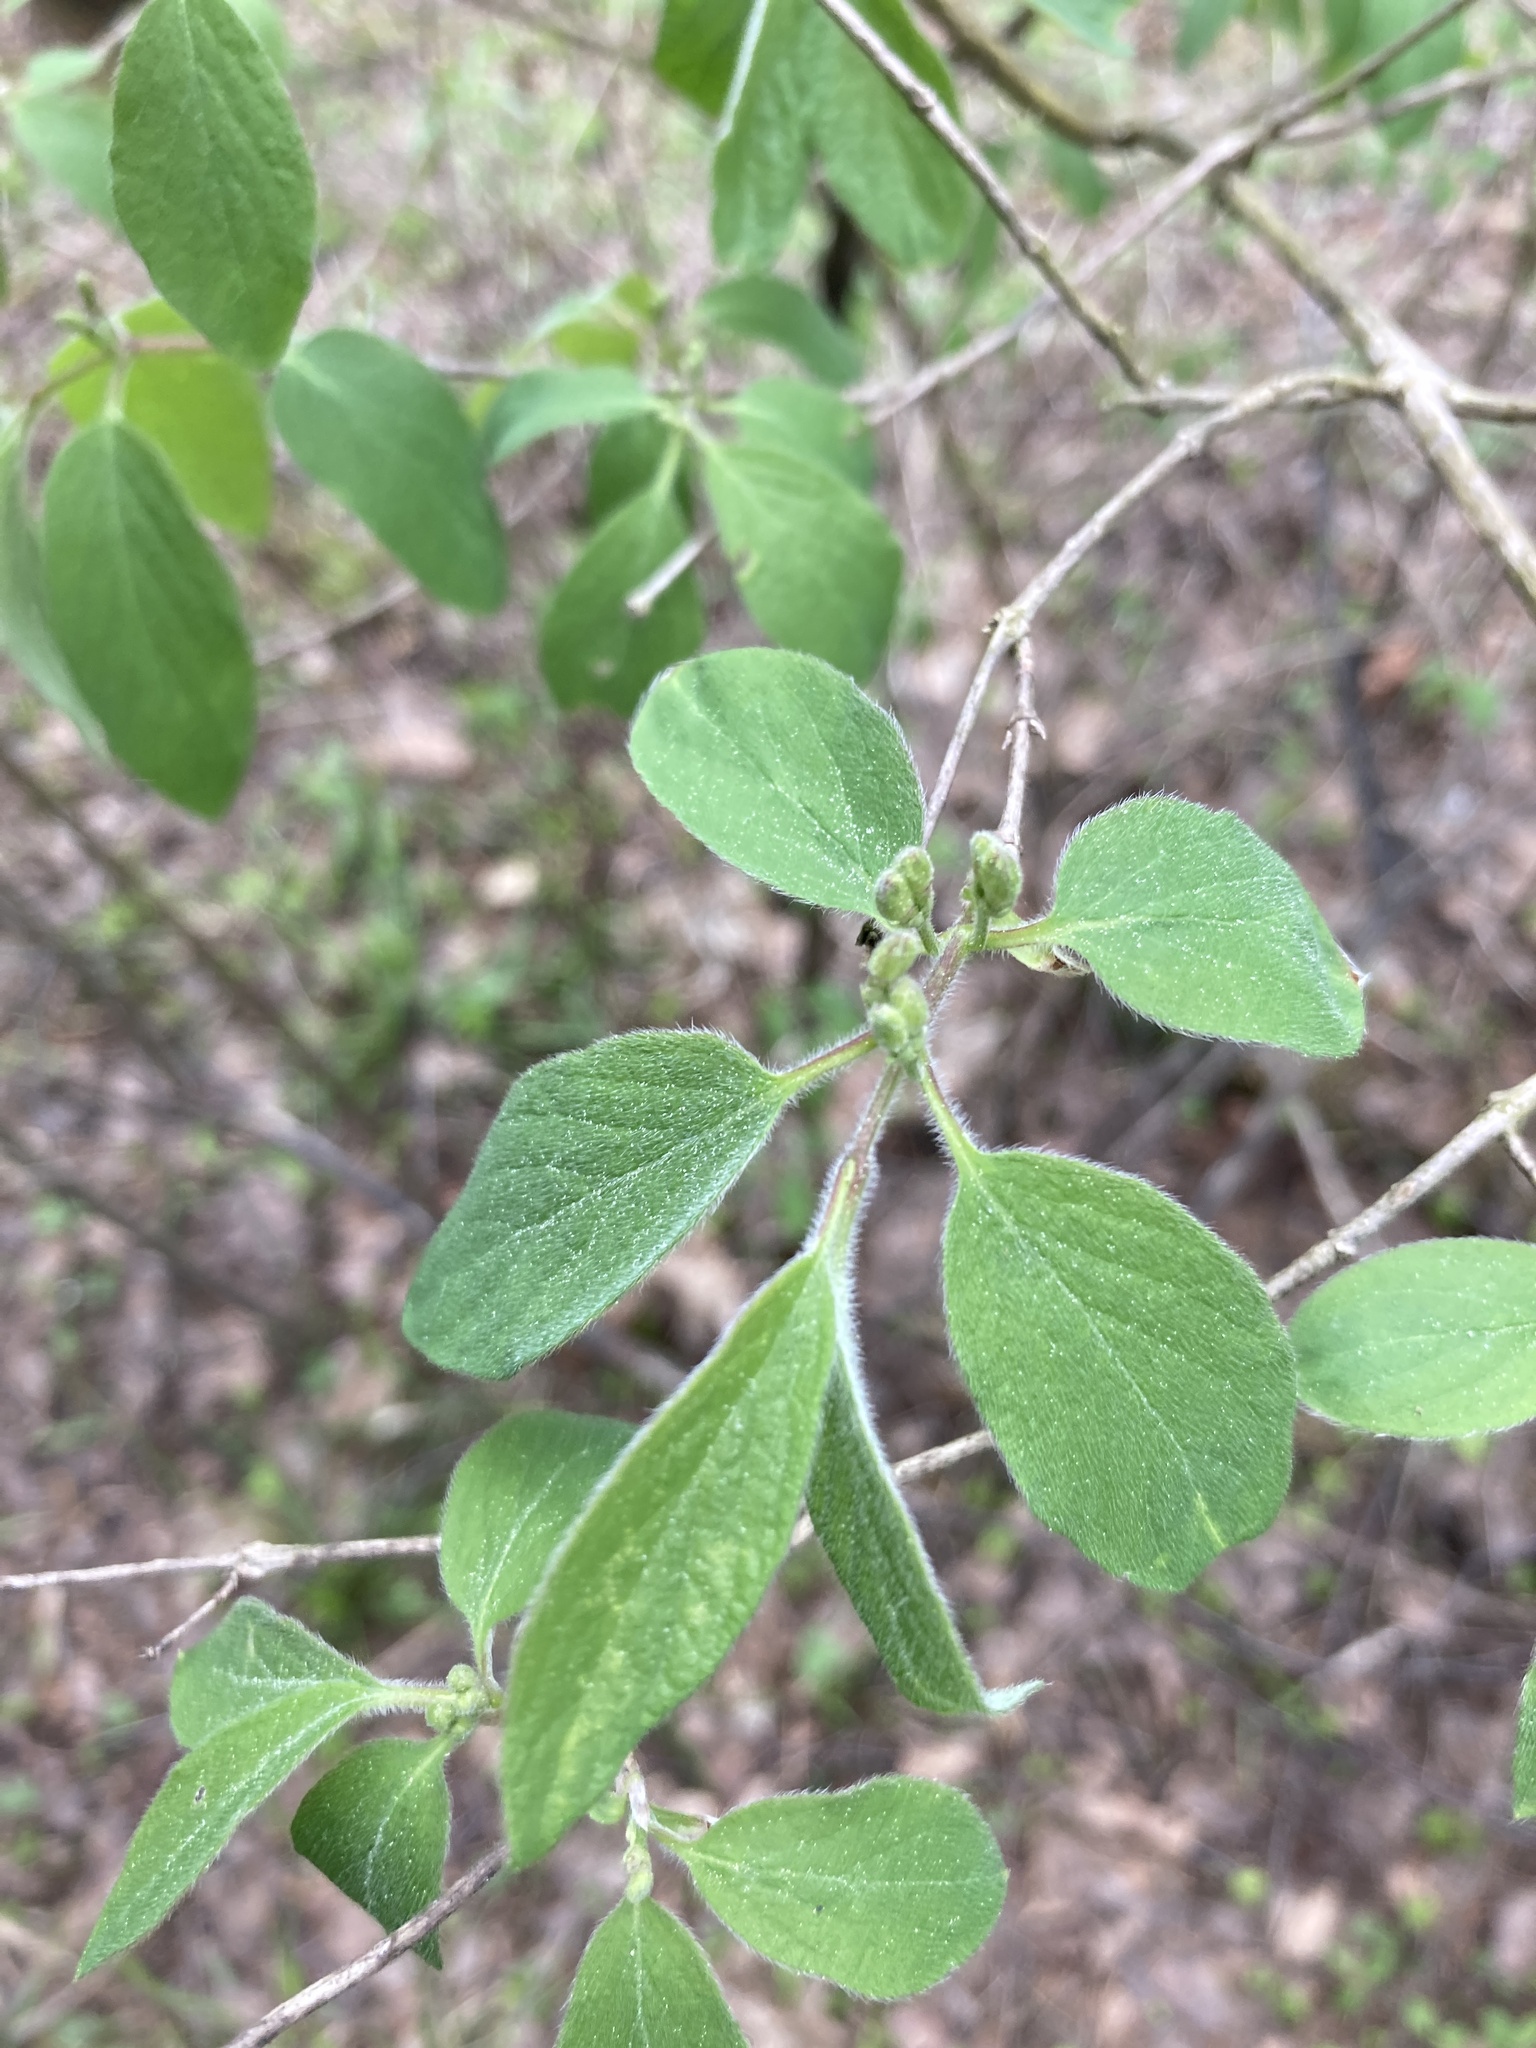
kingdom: Plantae
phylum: Tracheophyta
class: Magnoliopsida
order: Dipsacales
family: Caprifoliaceae
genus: Lonicera
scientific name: Lonicera xylosteum
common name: Fly honeysuckle
